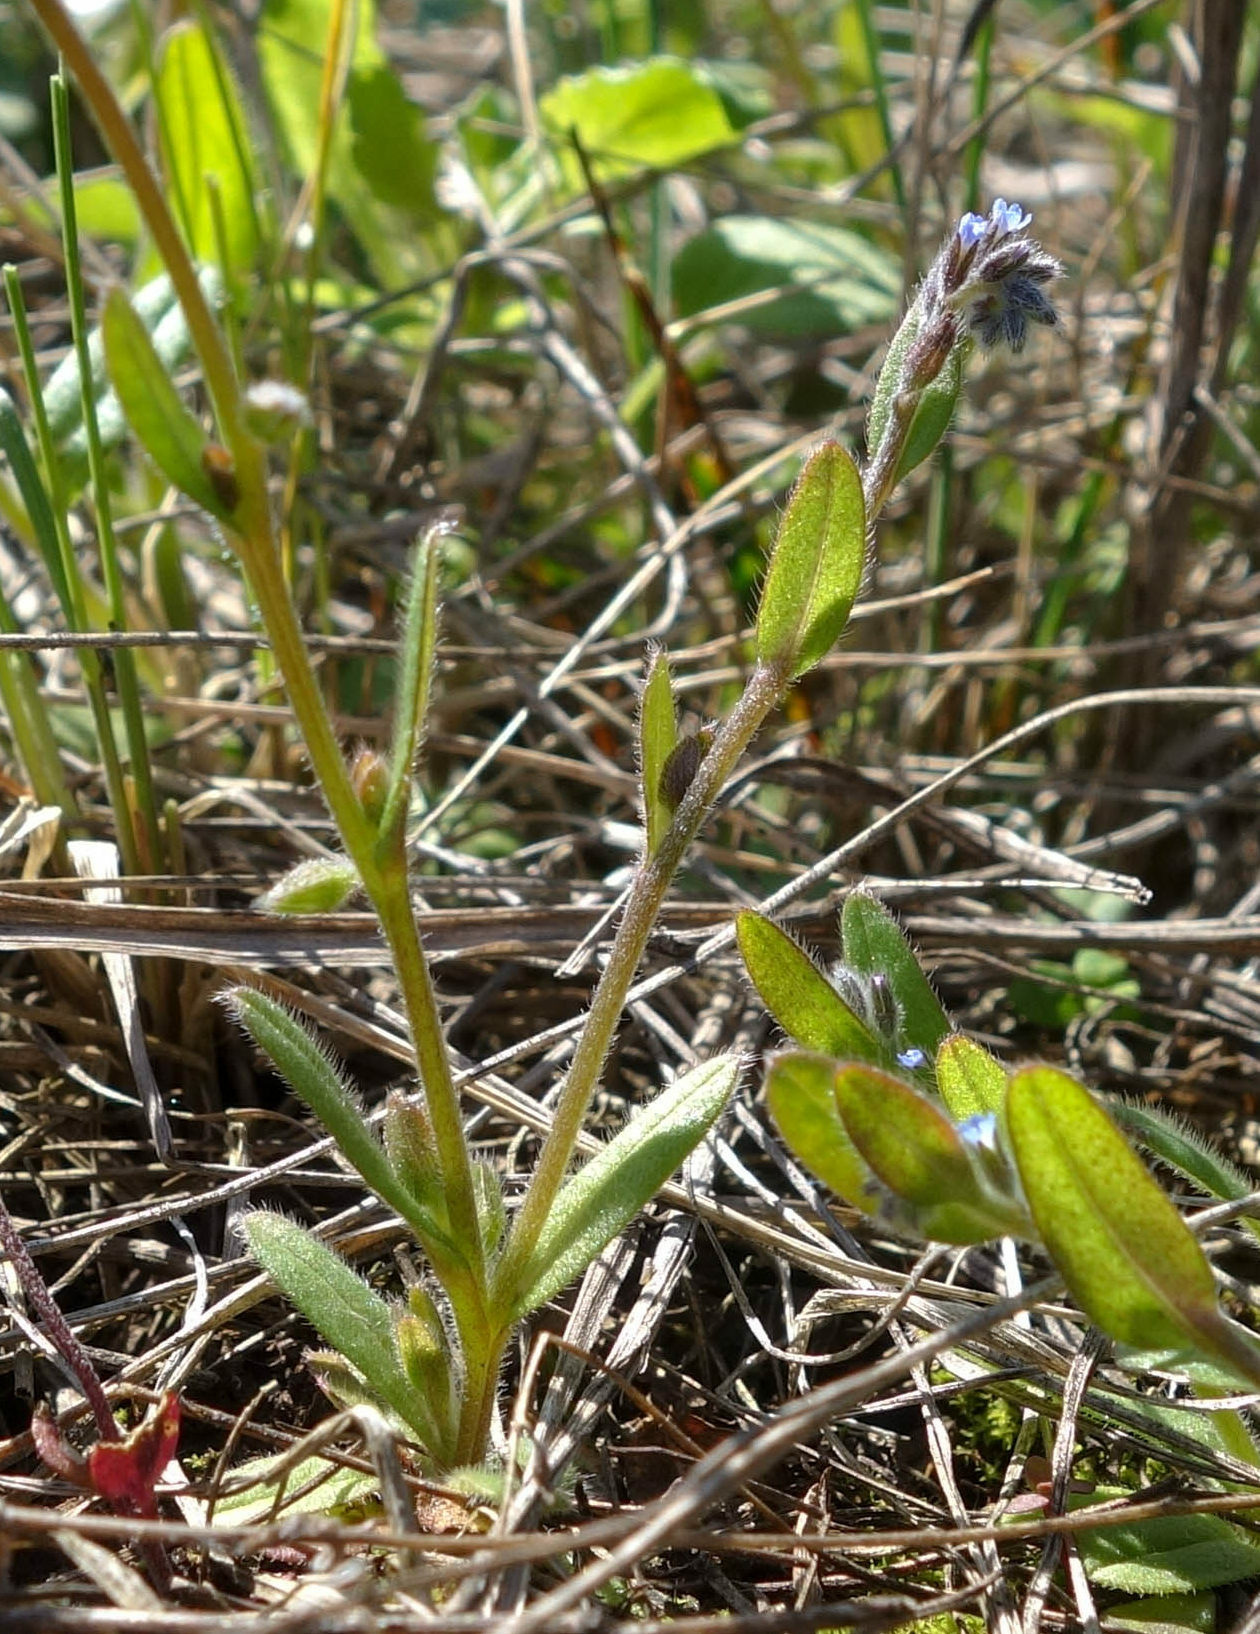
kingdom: Plantae
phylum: Tracheophyta
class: Magnoliopsida
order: Boraginales
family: Boraginaceae
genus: Myosotis
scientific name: Myosotis stricta
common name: Strict forget-me-not
